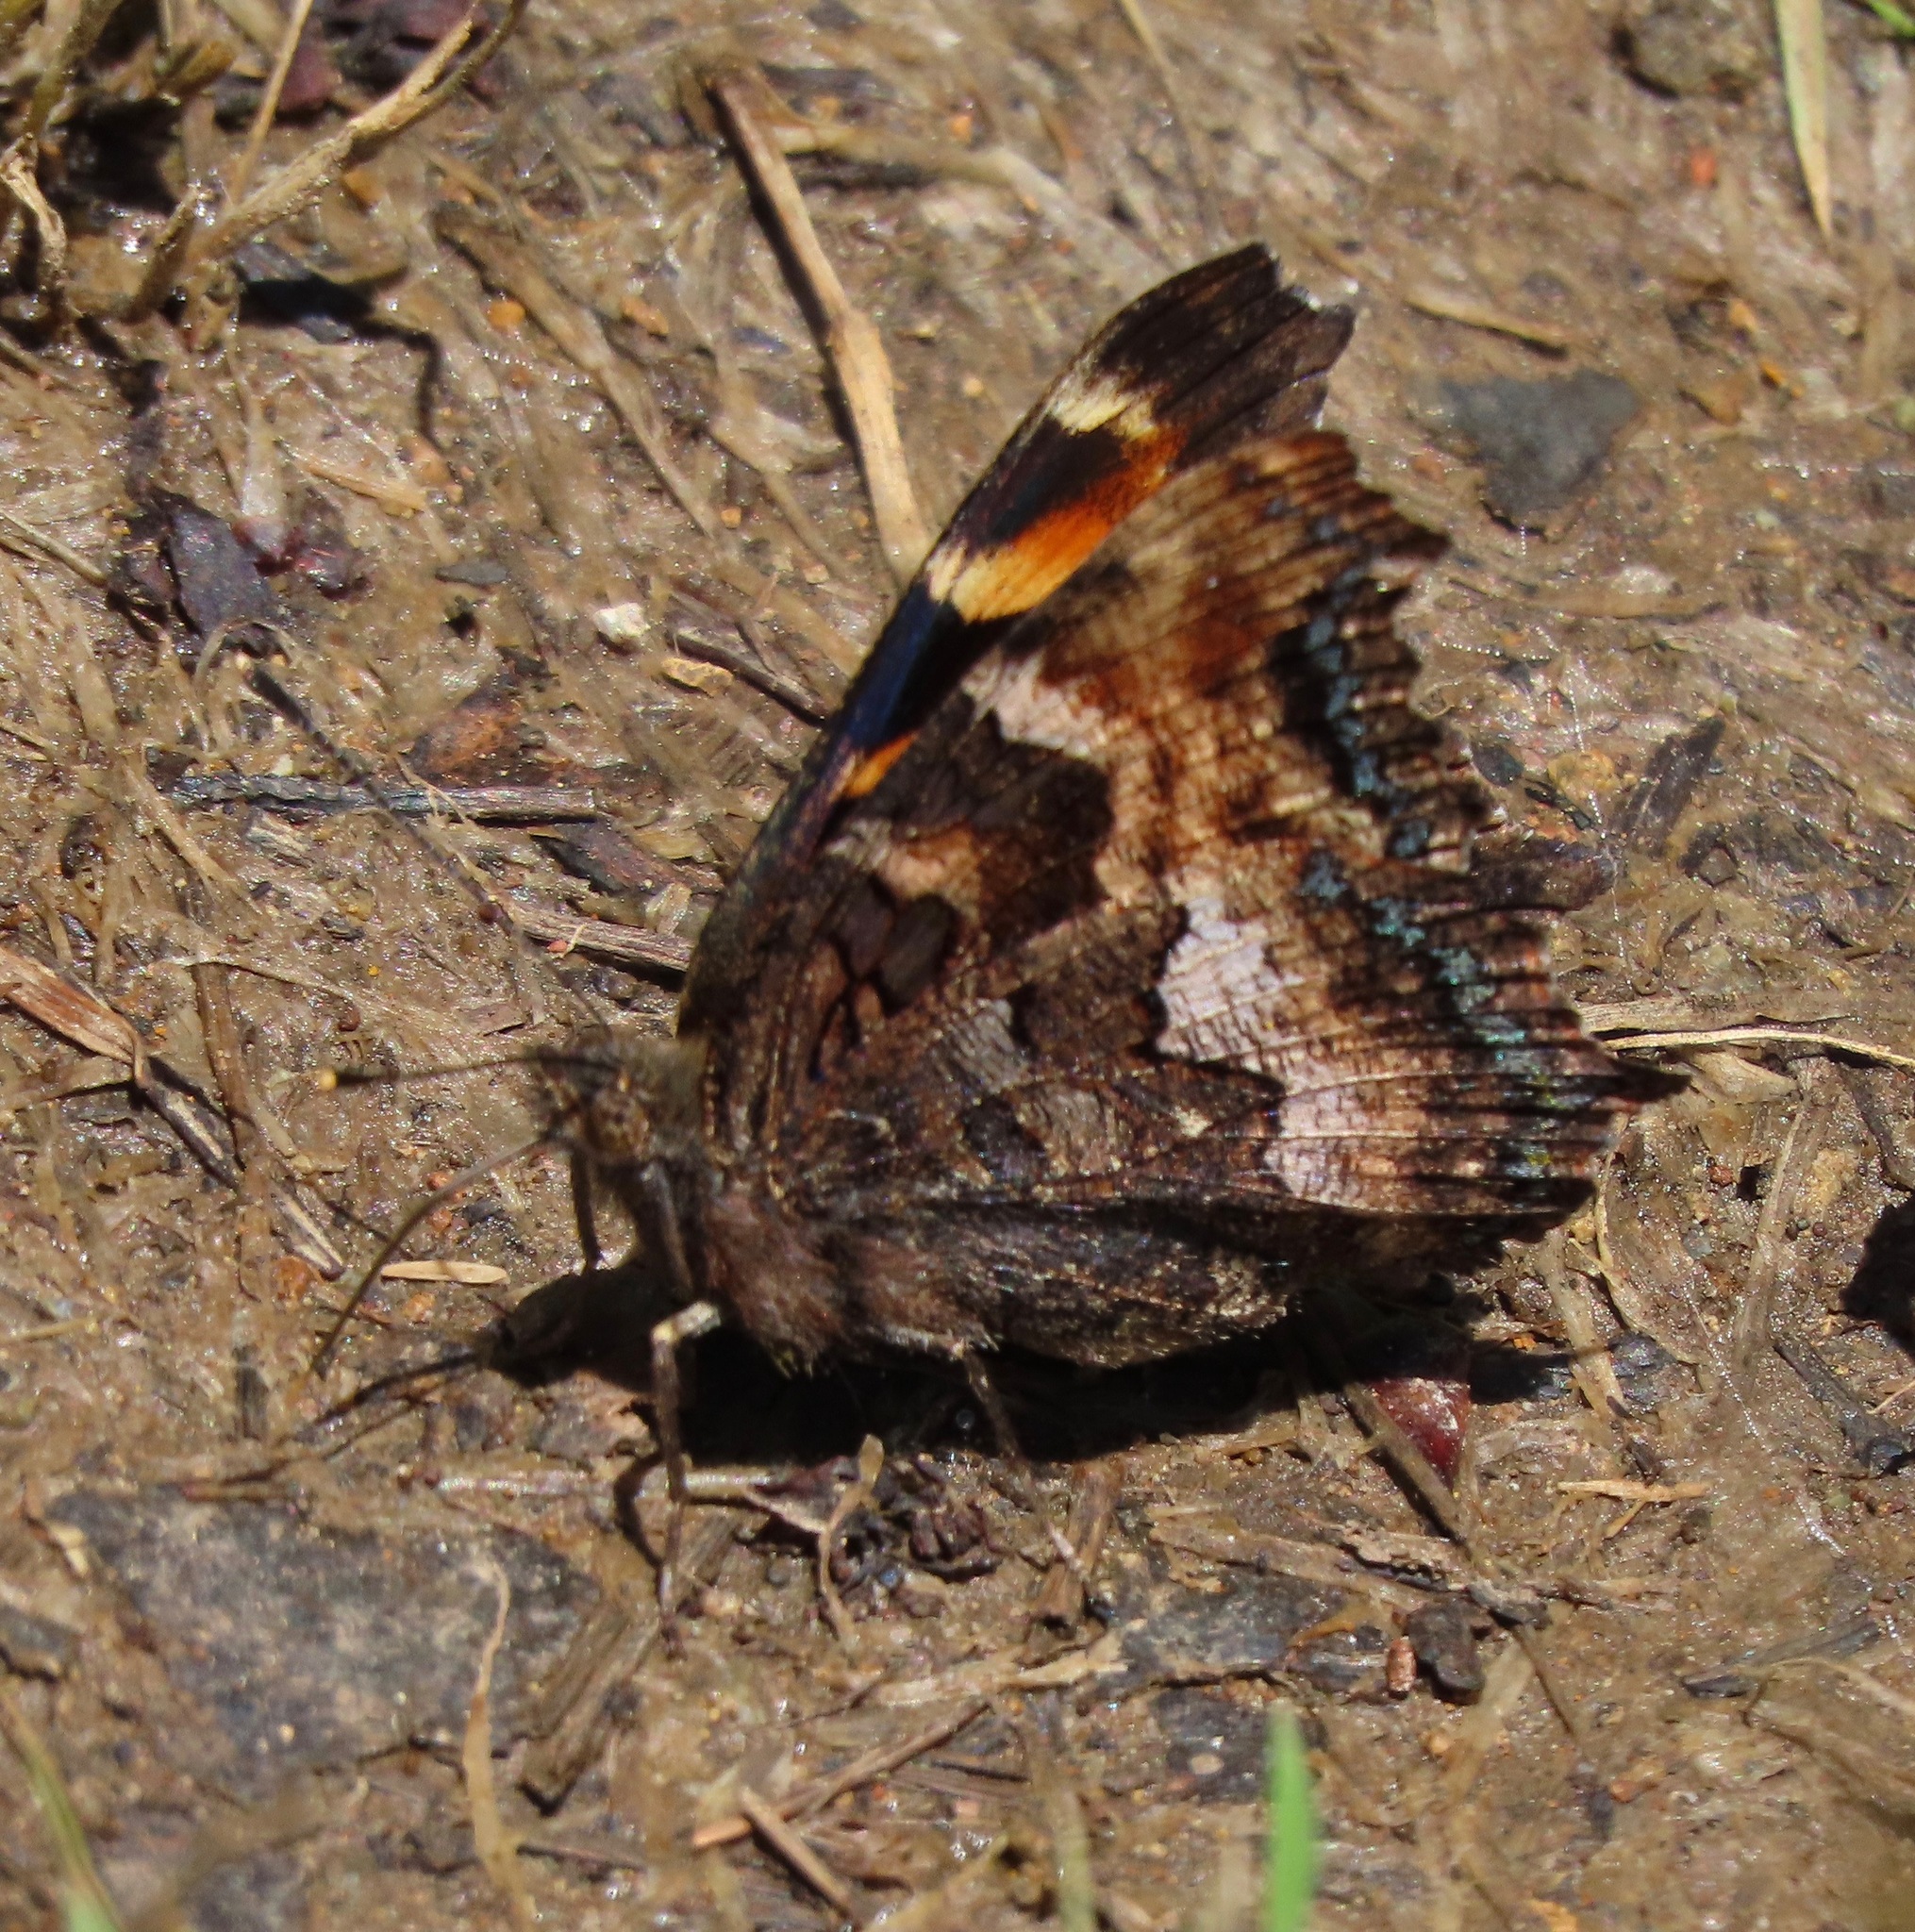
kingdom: Animalia
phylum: Arthropoda
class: Insecta
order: Lepidoptera
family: Nymphalidae
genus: Nymphalis
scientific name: Nymphalis californica
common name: California tortoiseshell
